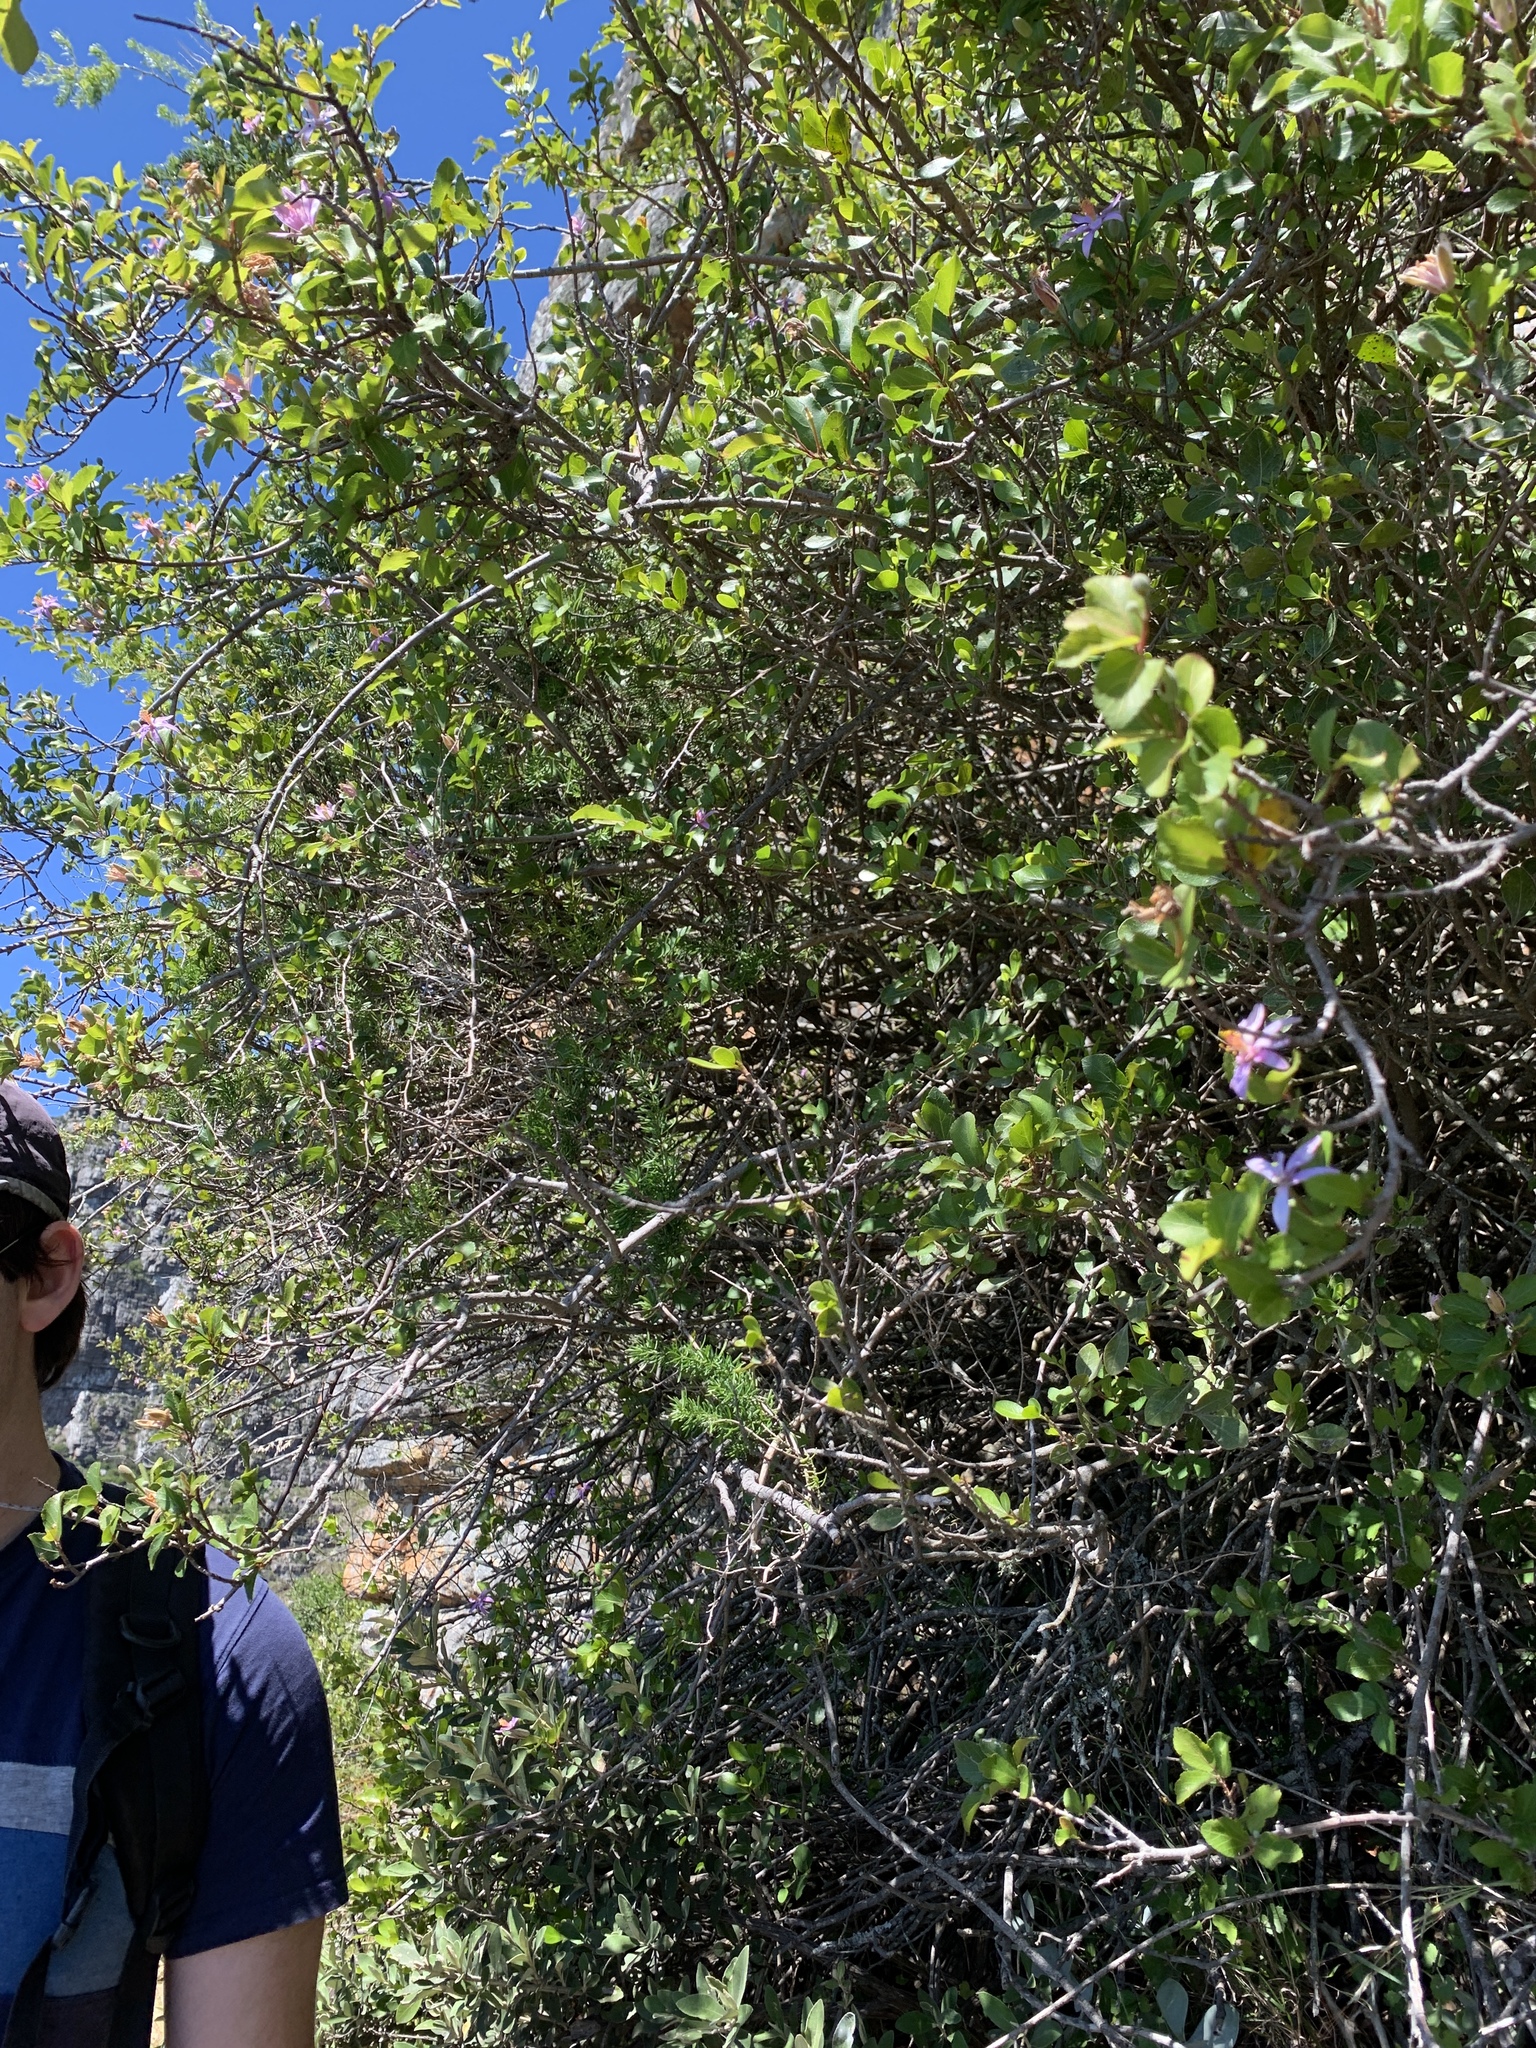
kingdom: Plantae
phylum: Tracheophyta
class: Magnoliopsida
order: Malvales
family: Malvaceae
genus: Grewia
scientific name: Grewia occidentalis
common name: Crossberry
